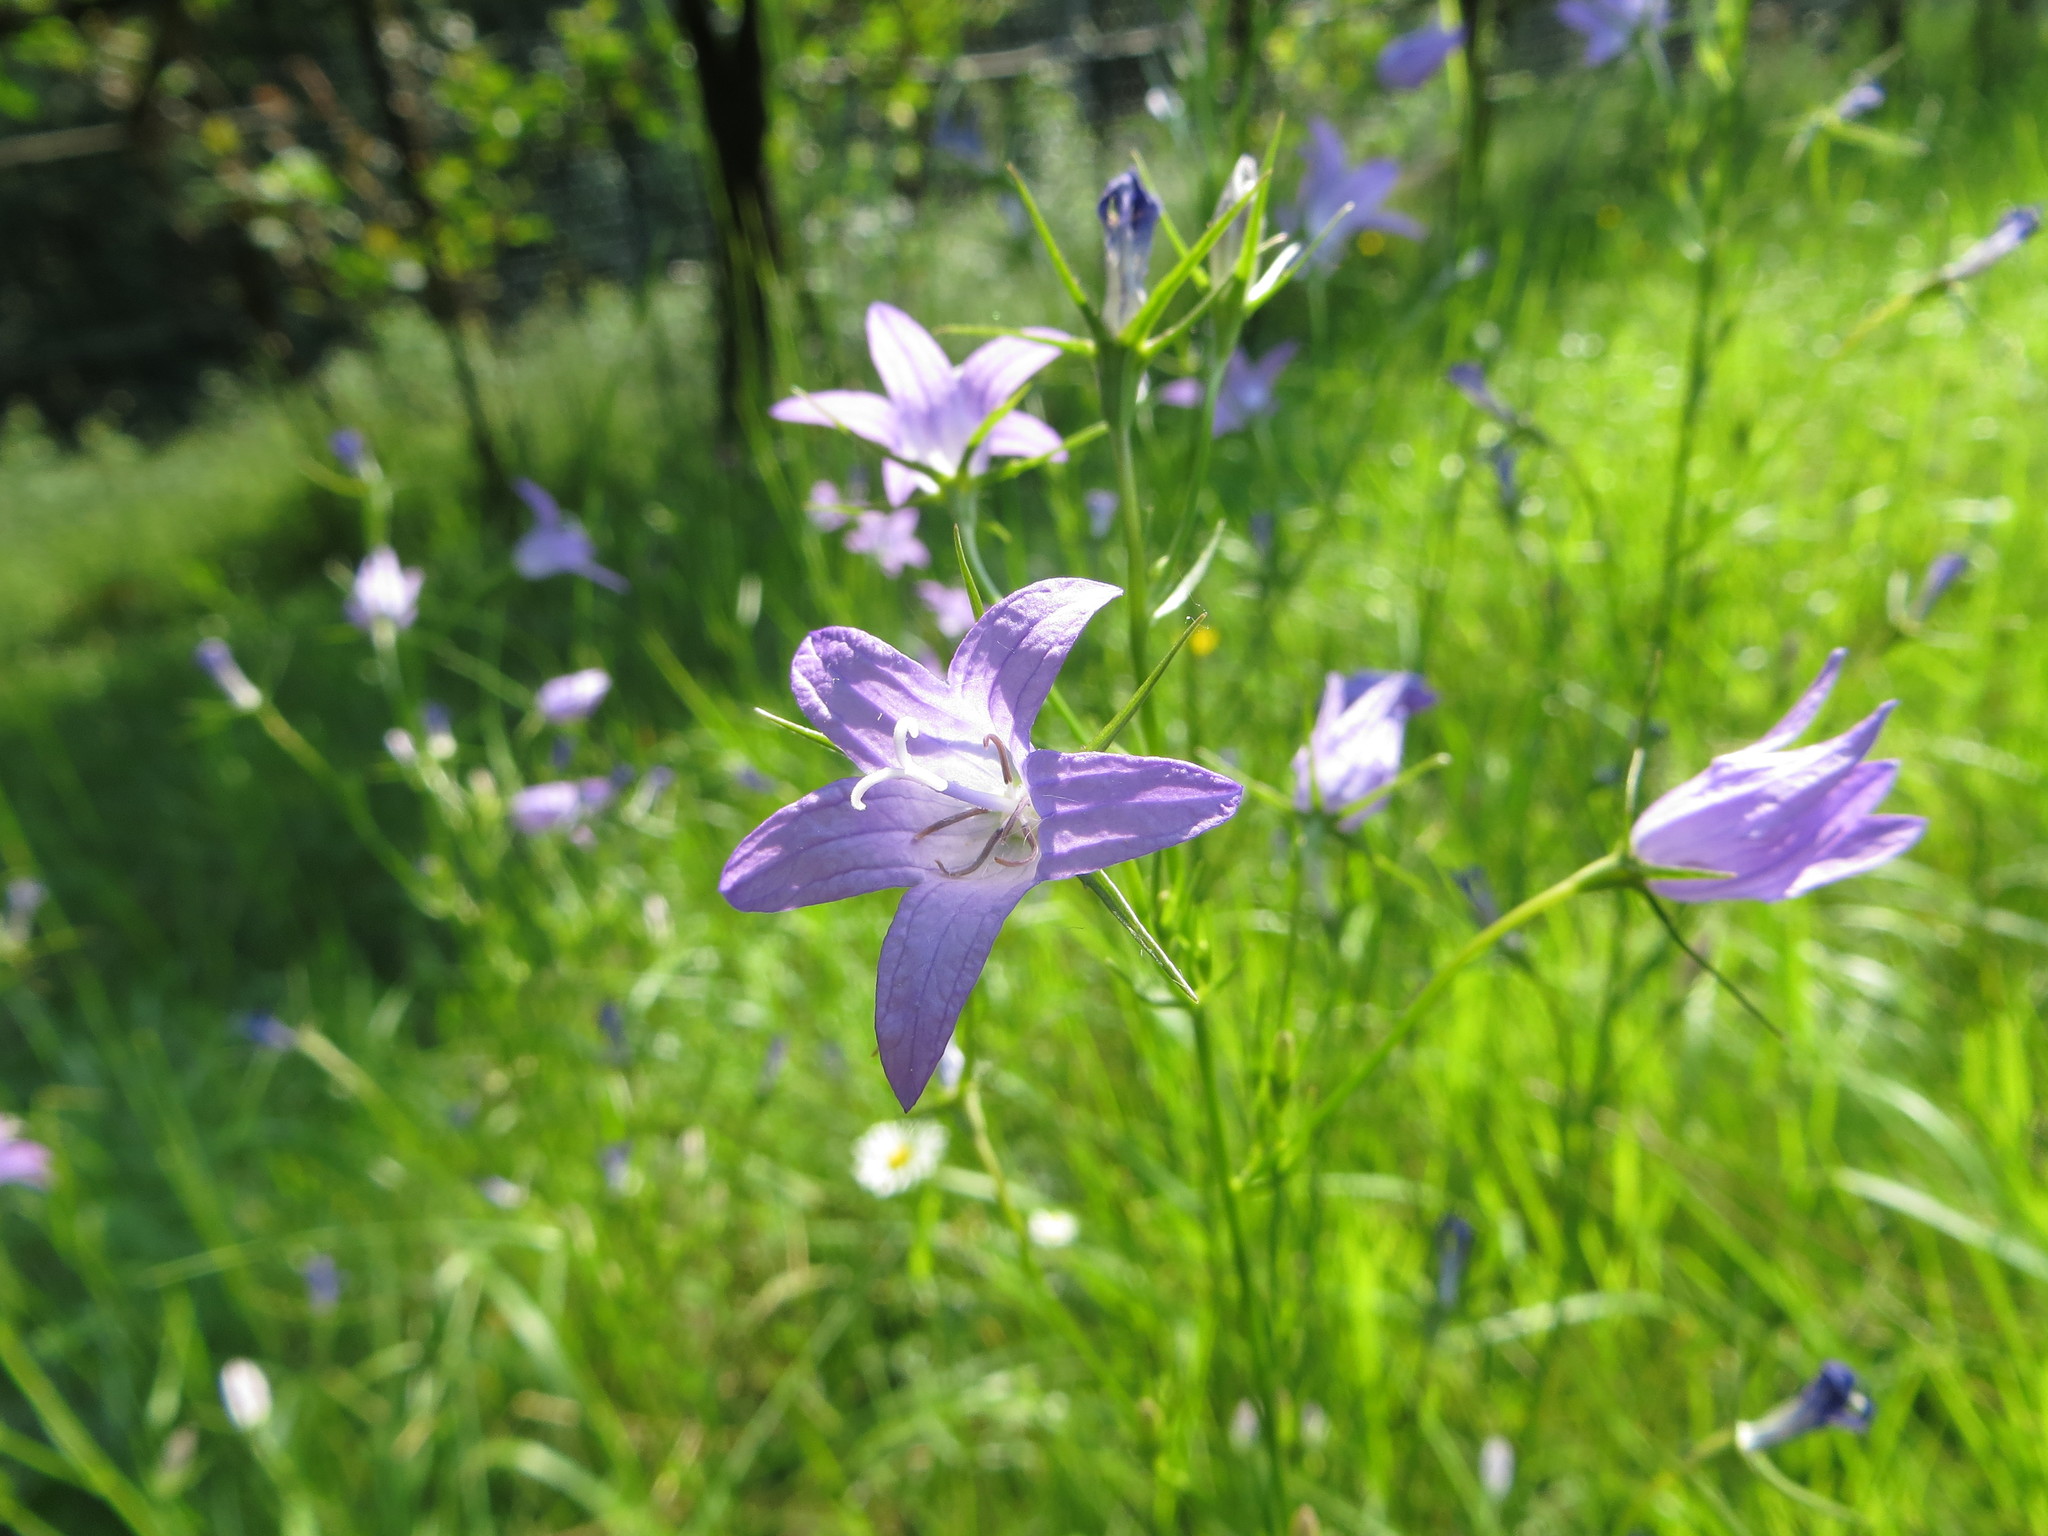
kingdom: Plantae
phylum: Tracheophyta
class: Magnoliopsida
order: Asterales
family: Campanulaceae
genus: Campanula
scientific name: Campanula rapunculus
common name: Rampion bellflower
